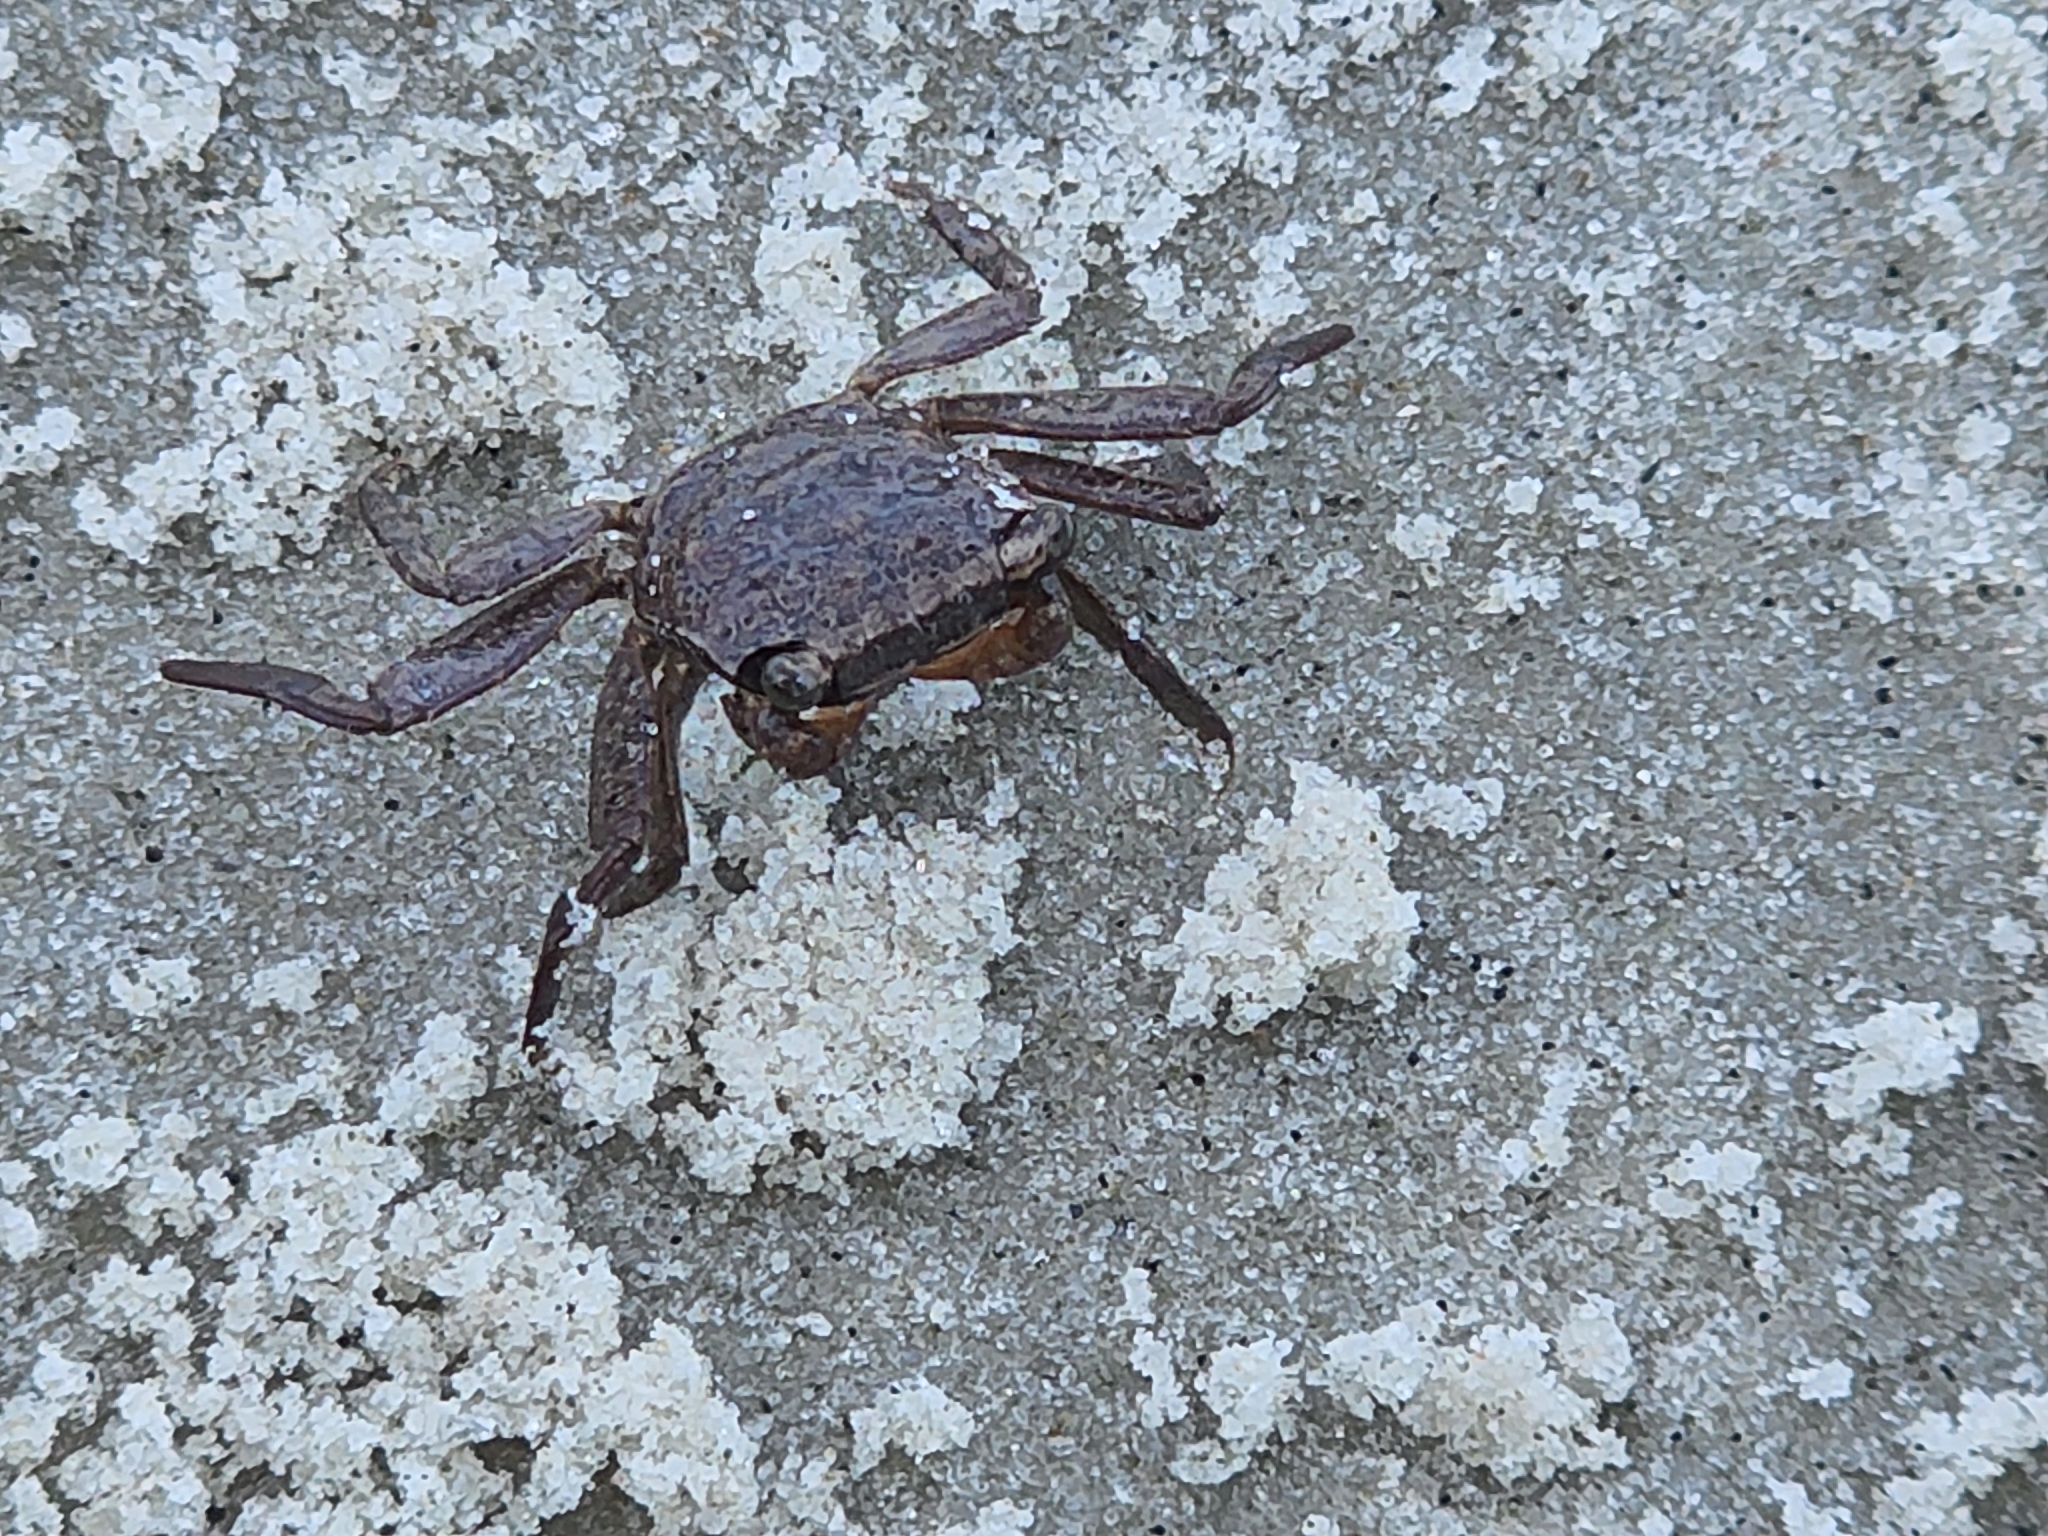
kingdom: Animalia
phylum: Arthropoda
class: Malacostraca
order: Decapoda
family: Sesarmidae
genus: Armases
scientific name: Armases cinereum
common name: Squareback marsh crab
